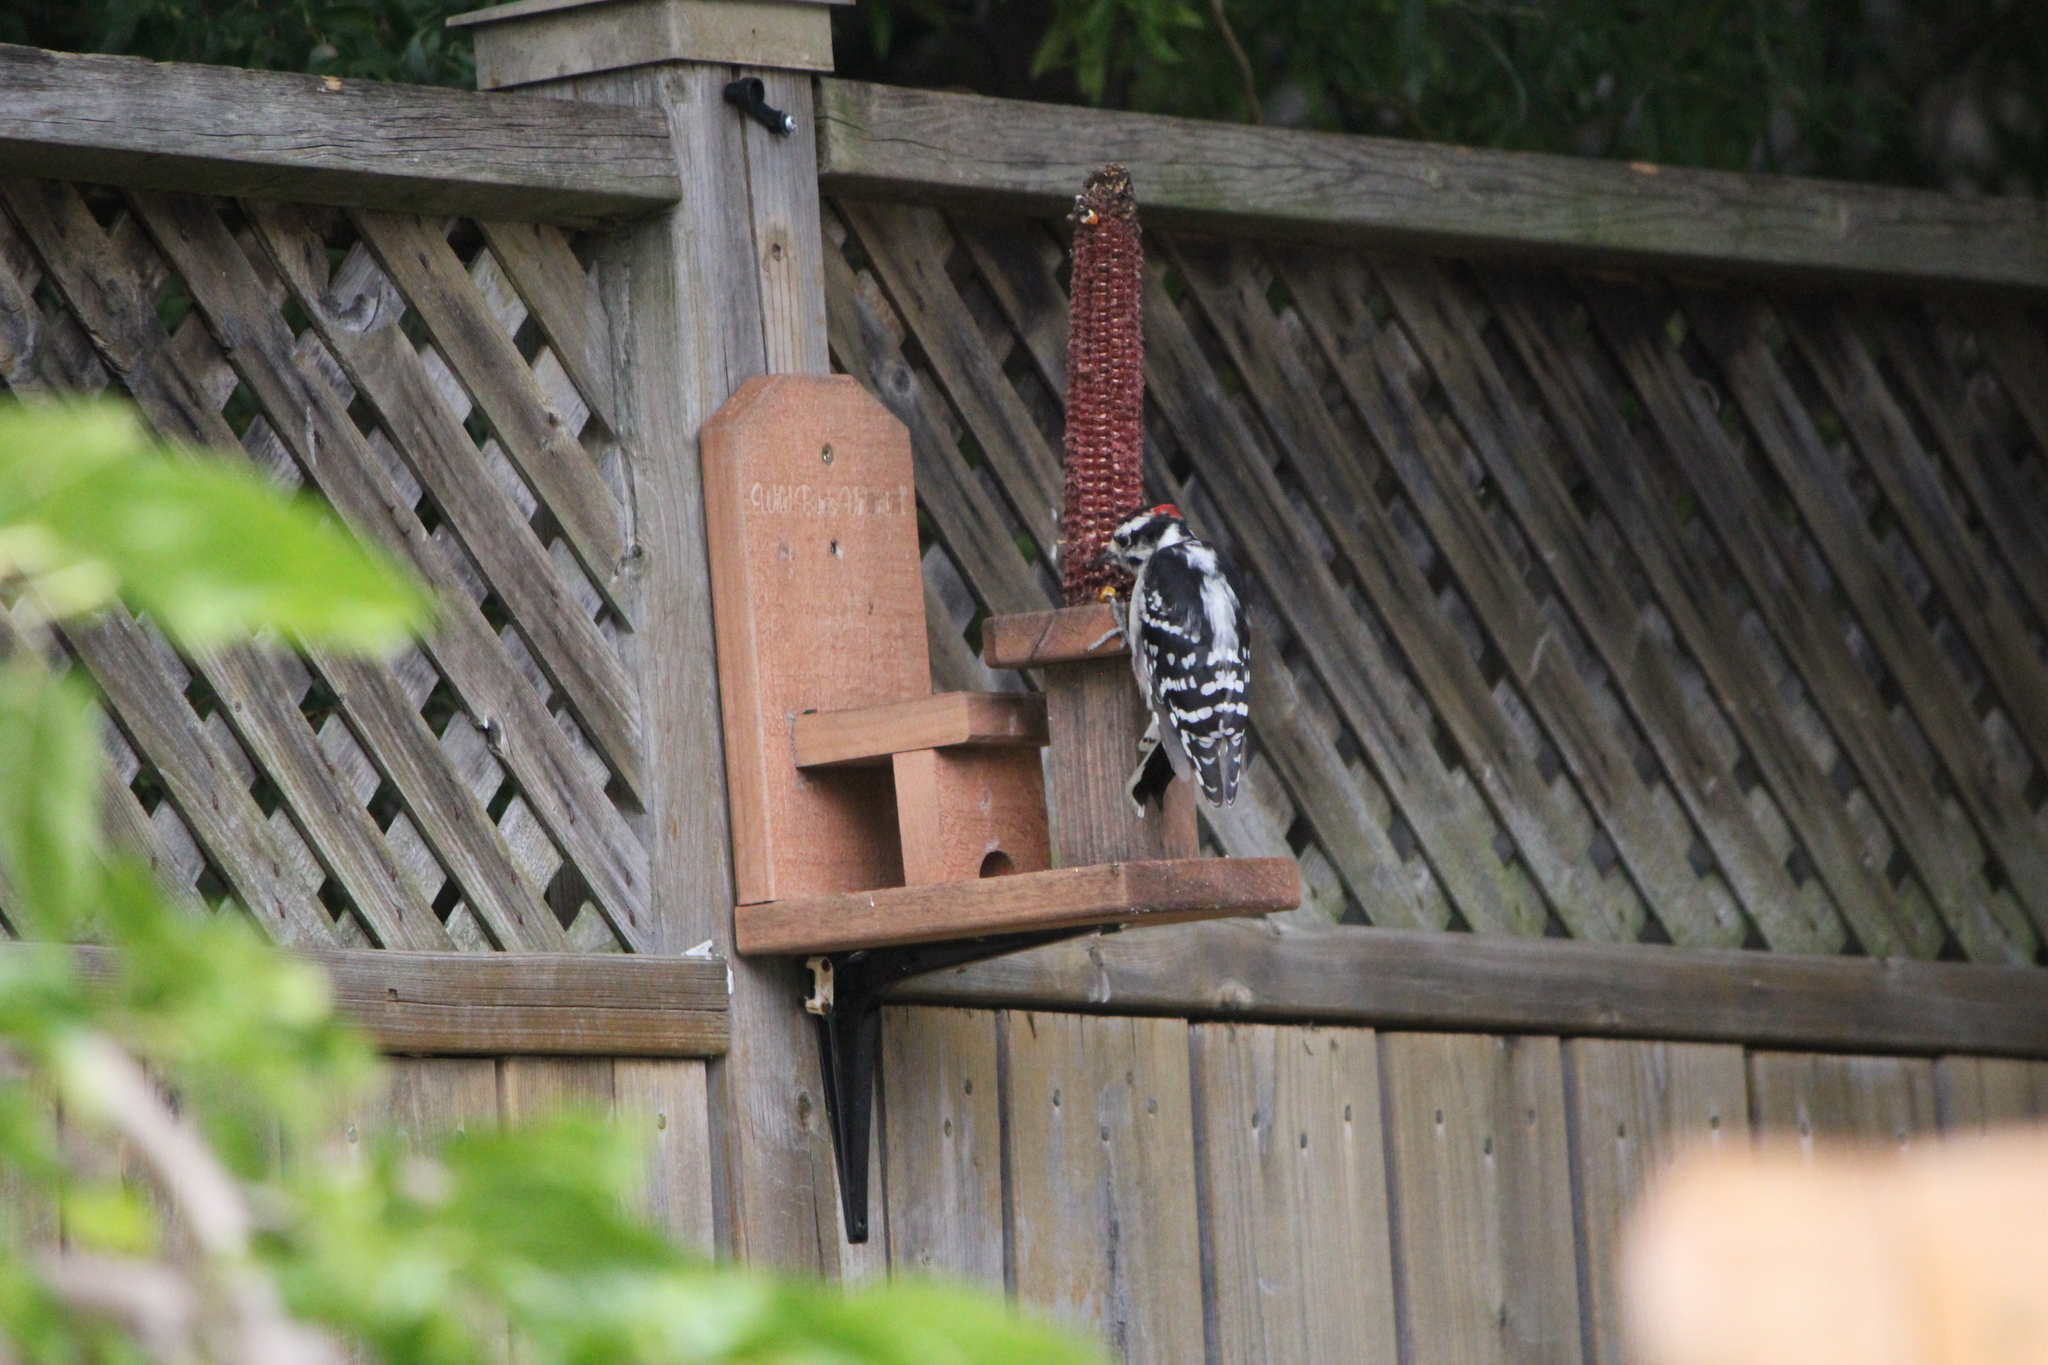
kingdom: Animalia
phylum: Chordata
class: Aves
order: Piciformes
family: Picidae
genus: Dryobates
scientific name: Dryobates pubescens
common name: Downy woodpecker
